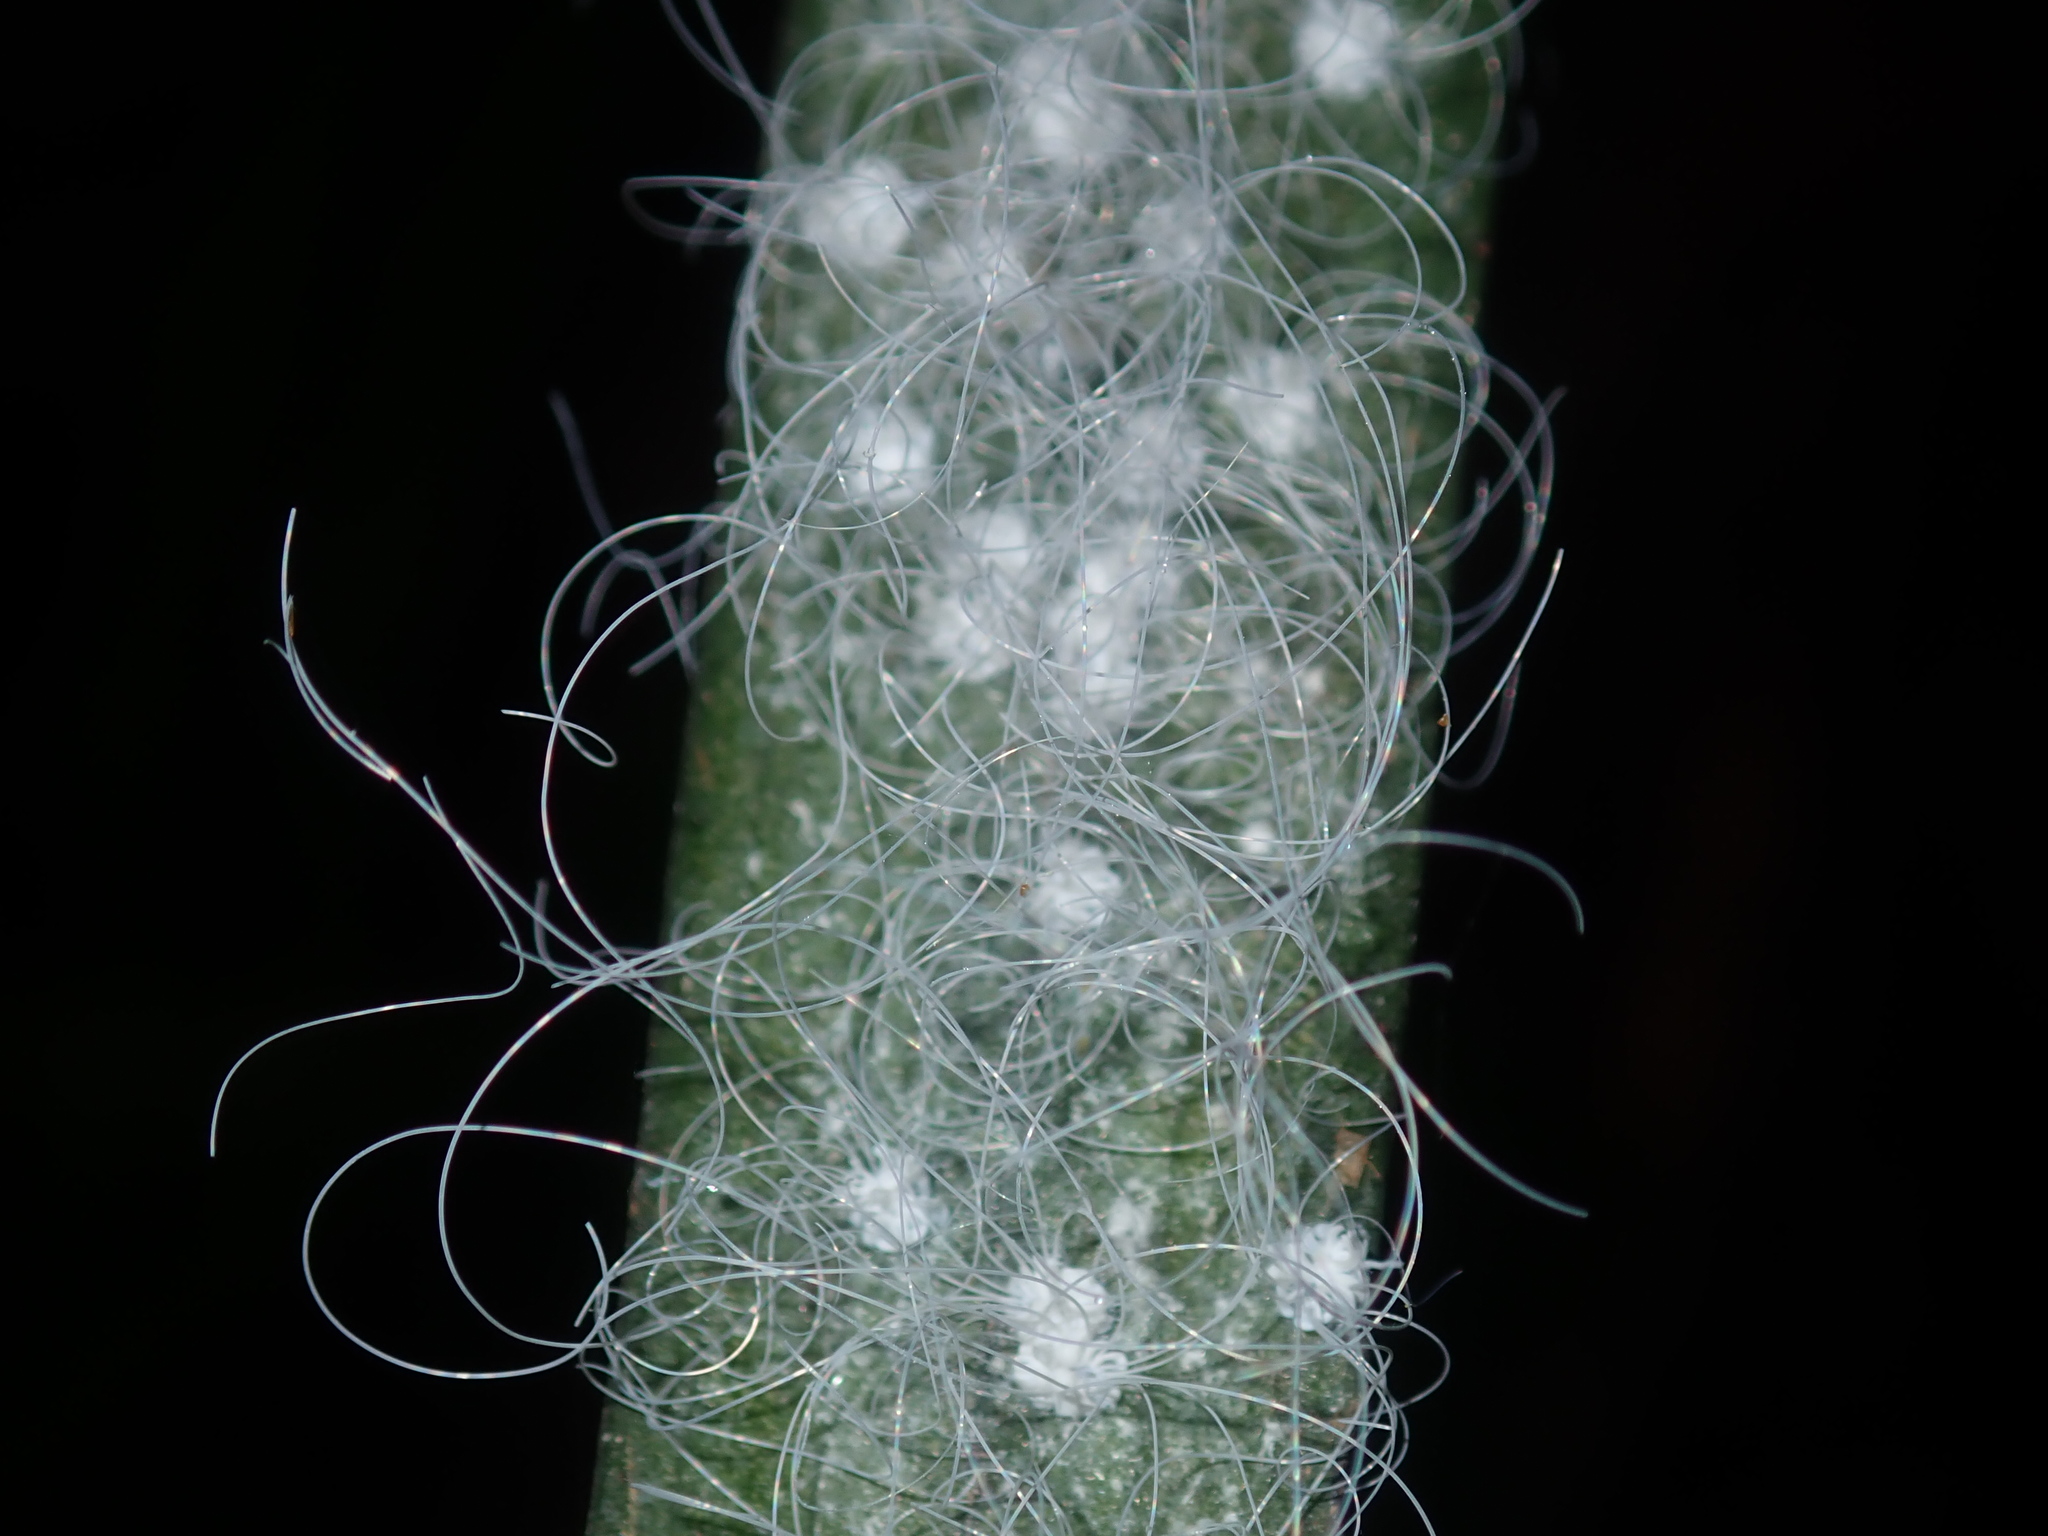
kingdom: Animalia
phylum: Arthropoda
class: Insecta
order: Hemiptera
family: Aleyrodidae
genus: Aleuroctarthrus
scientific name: Aleuroctarthrus
